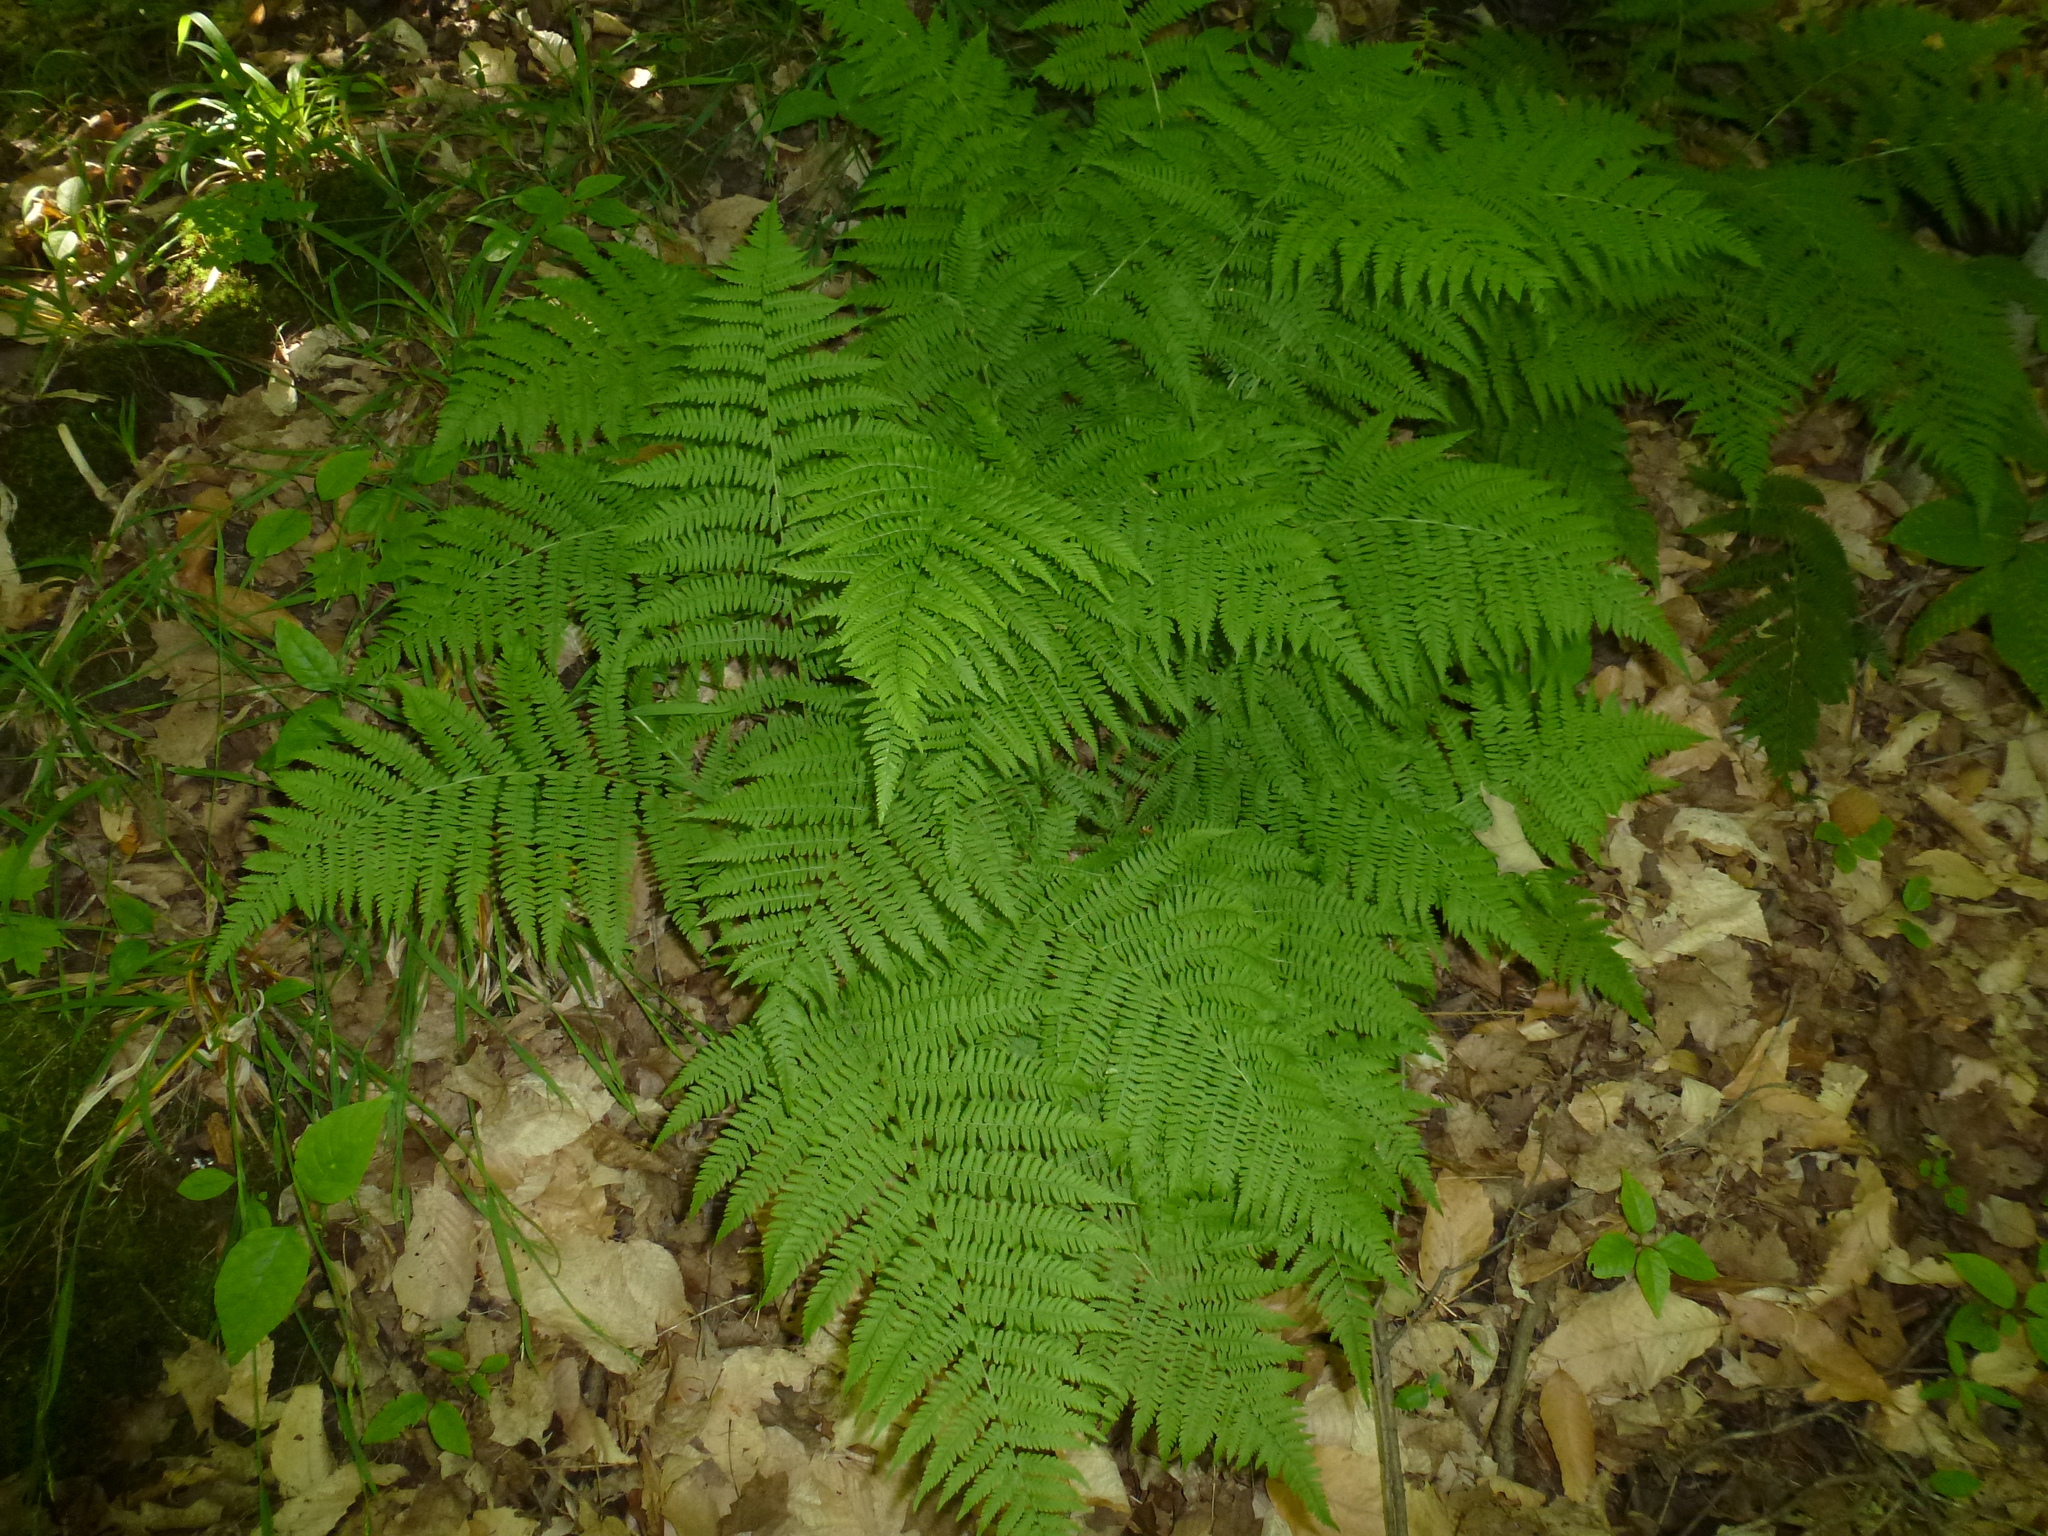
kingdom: Plantae
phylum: Tracheophyta
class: Polypodiopsida
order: Polypodiales
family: Athyriaceae
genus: Athyrium
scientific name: Athyrium angustum
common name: Northern lady fern
